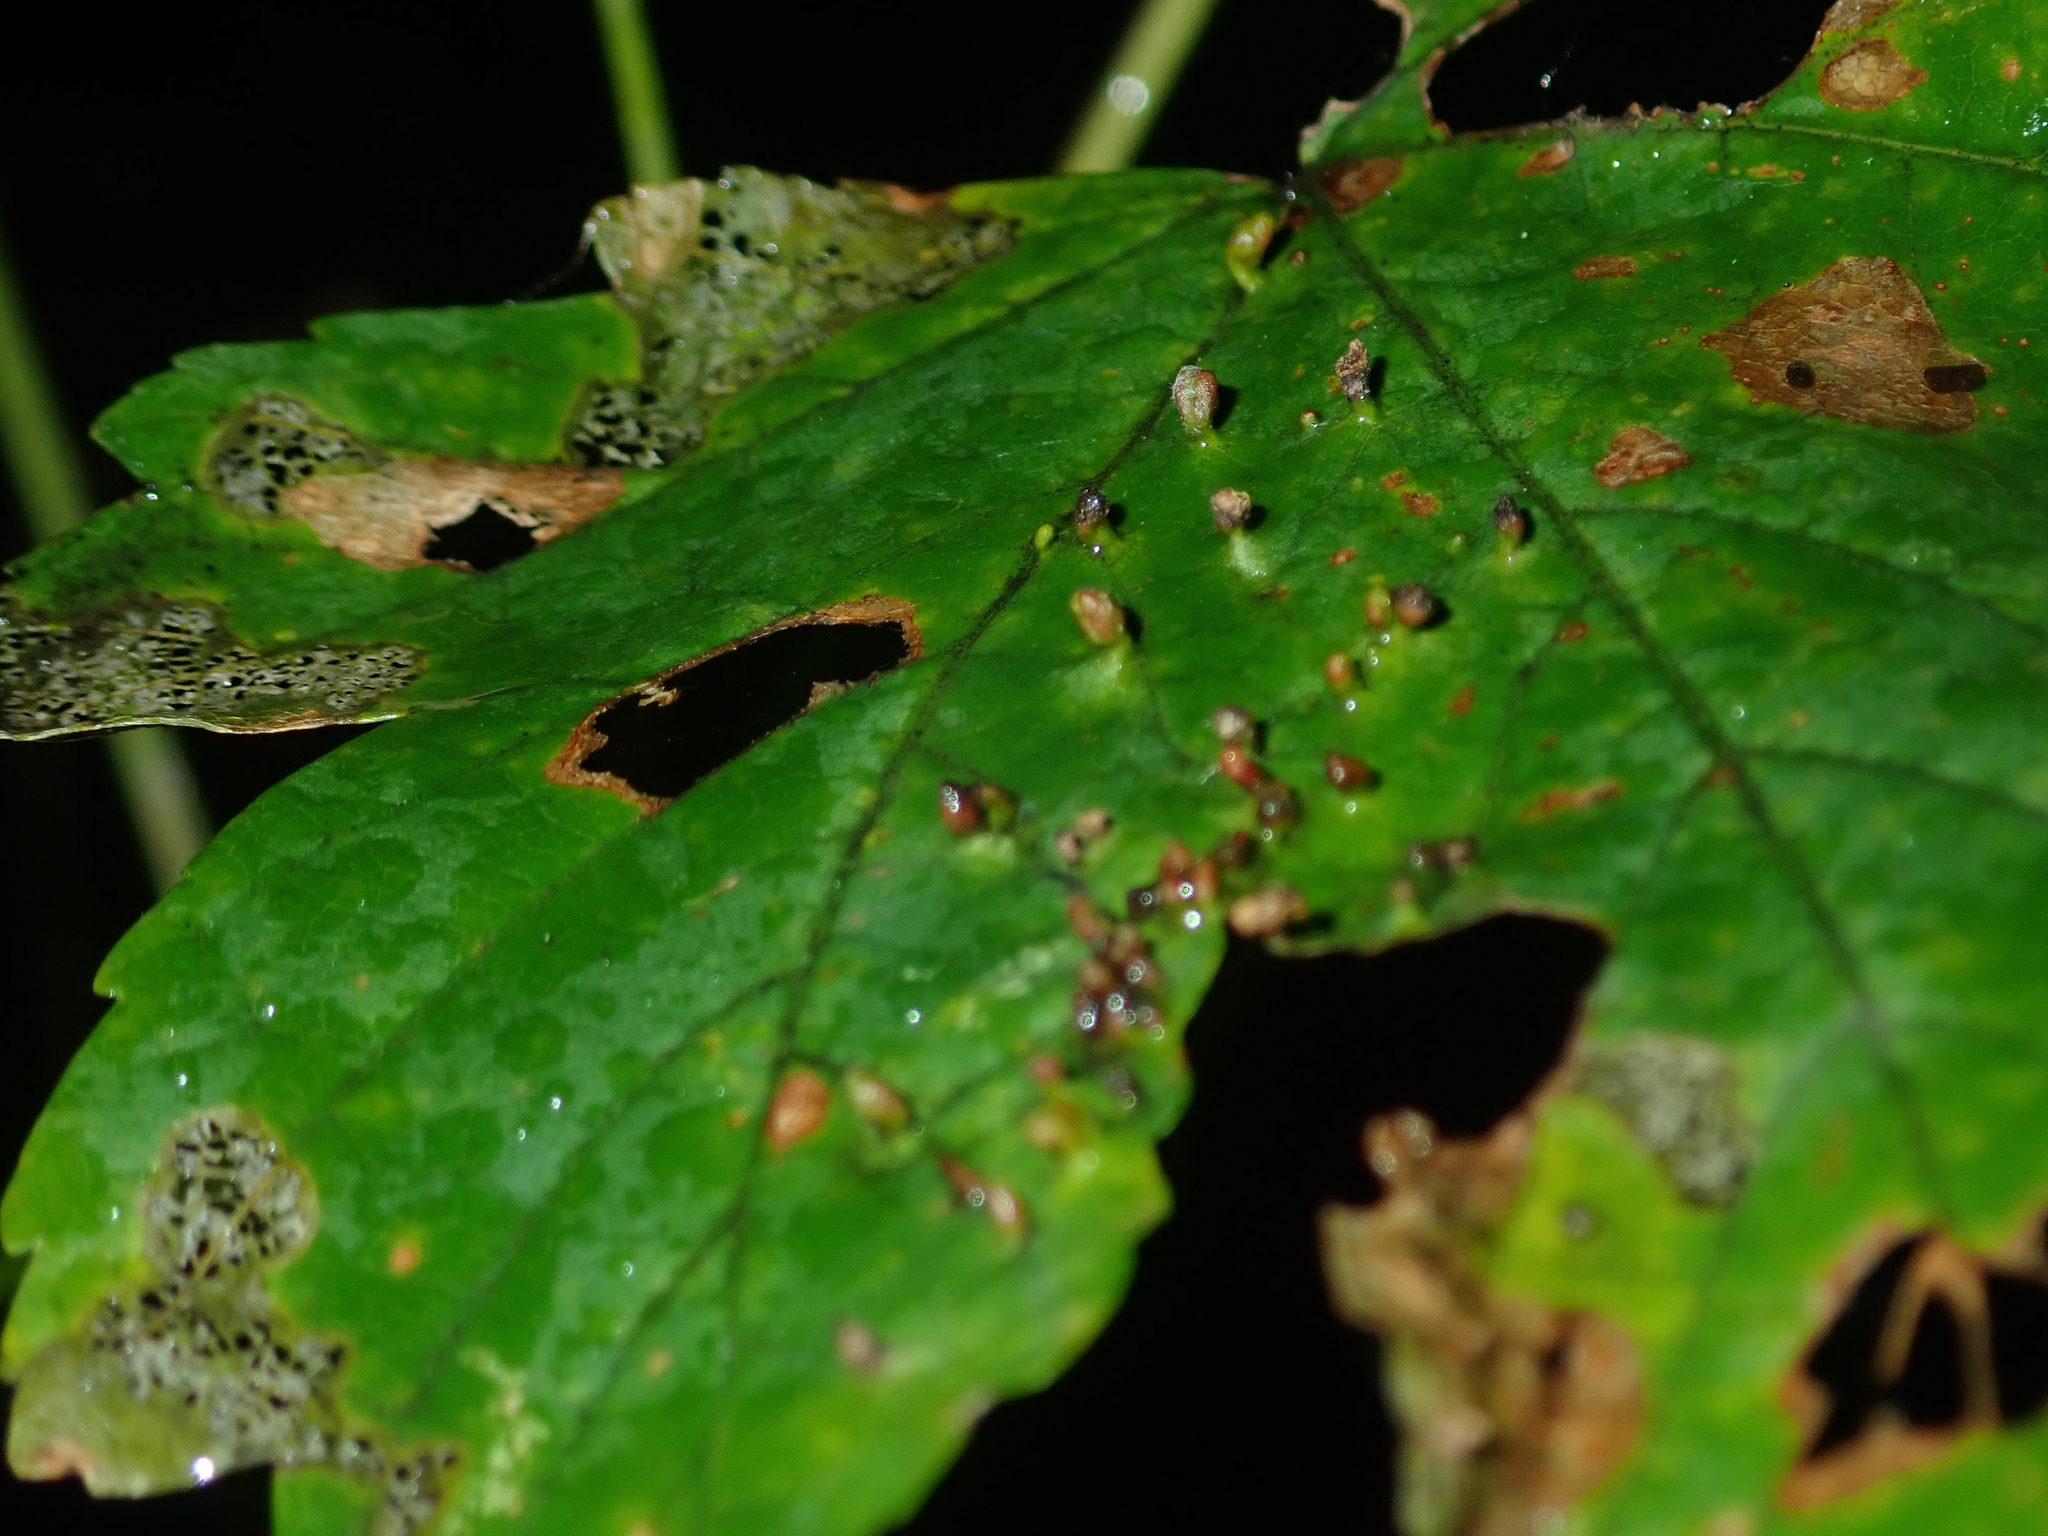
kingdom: Animalia
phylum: Arthropoda
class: Arachnida
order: Trombidiformes
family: Eriophyidae
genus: Aceria
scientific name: Aceria cephaloneus
